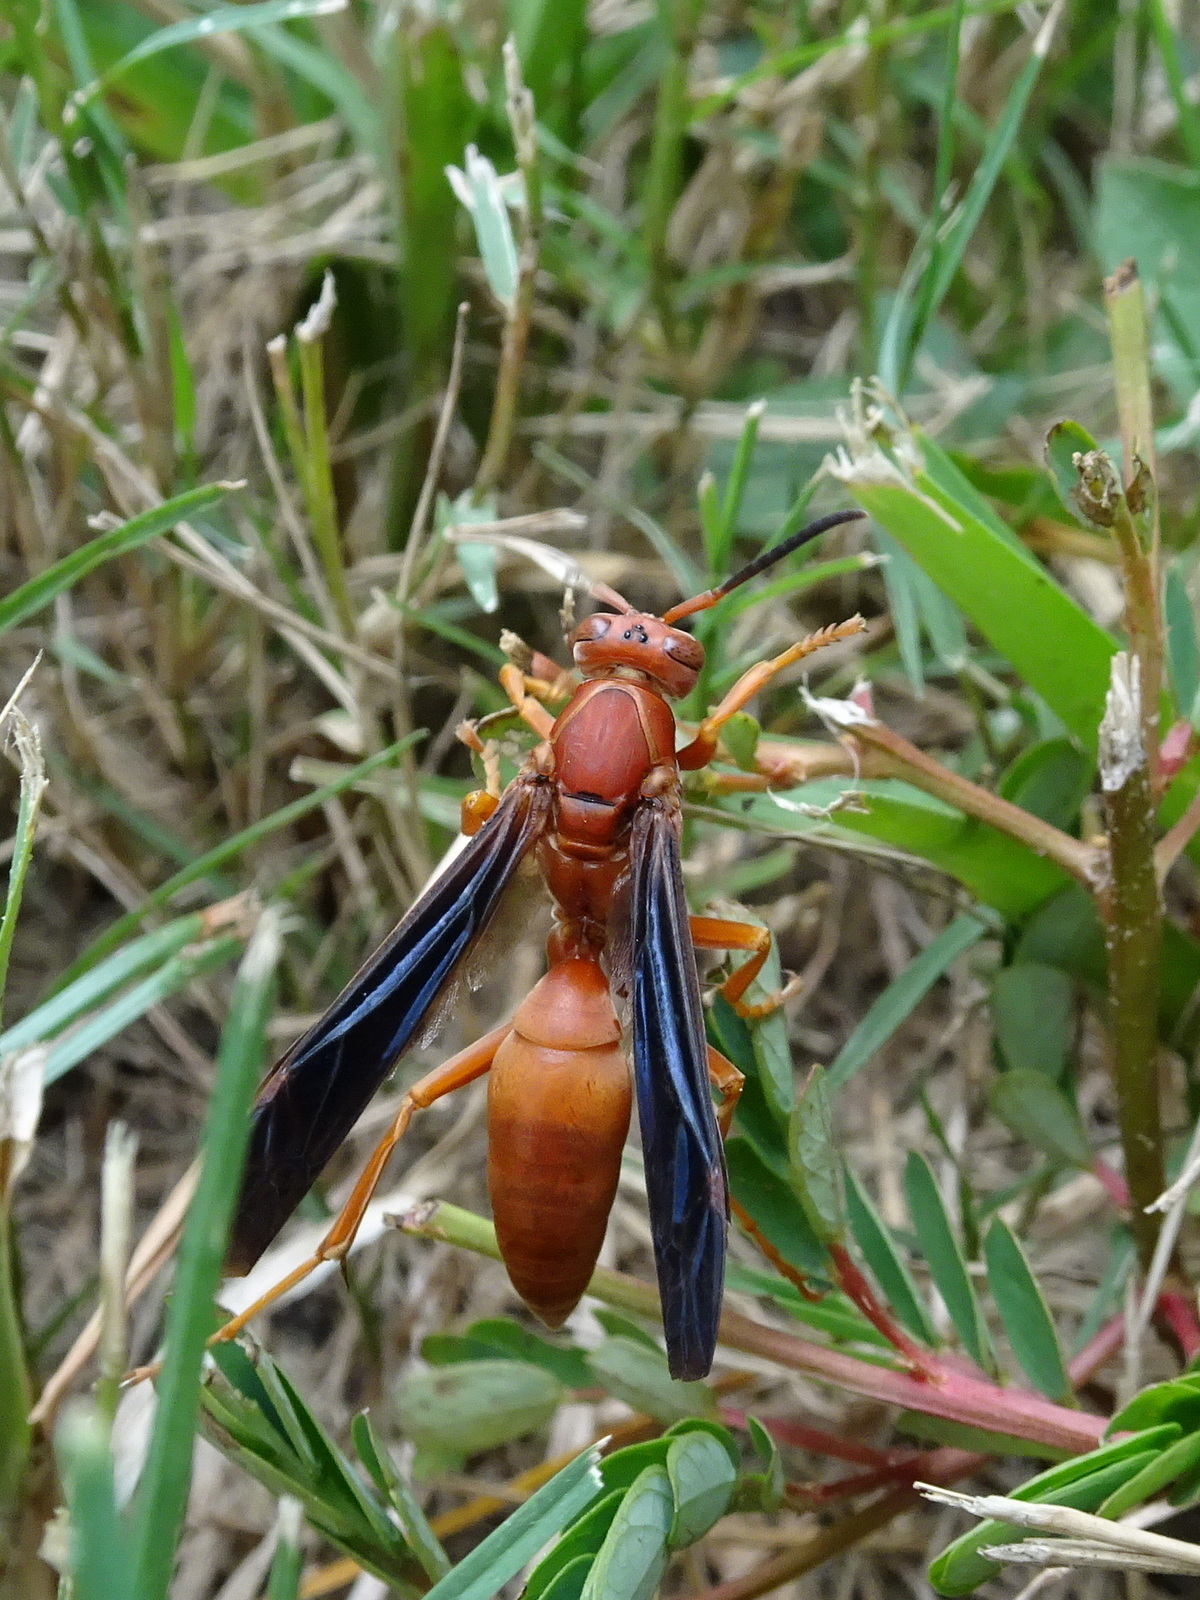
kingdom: Animalia
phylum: Arthropoda
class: Insecta
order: Hymenoptera
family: Eumenidae
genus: Polistes
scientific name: Polistes carolina
